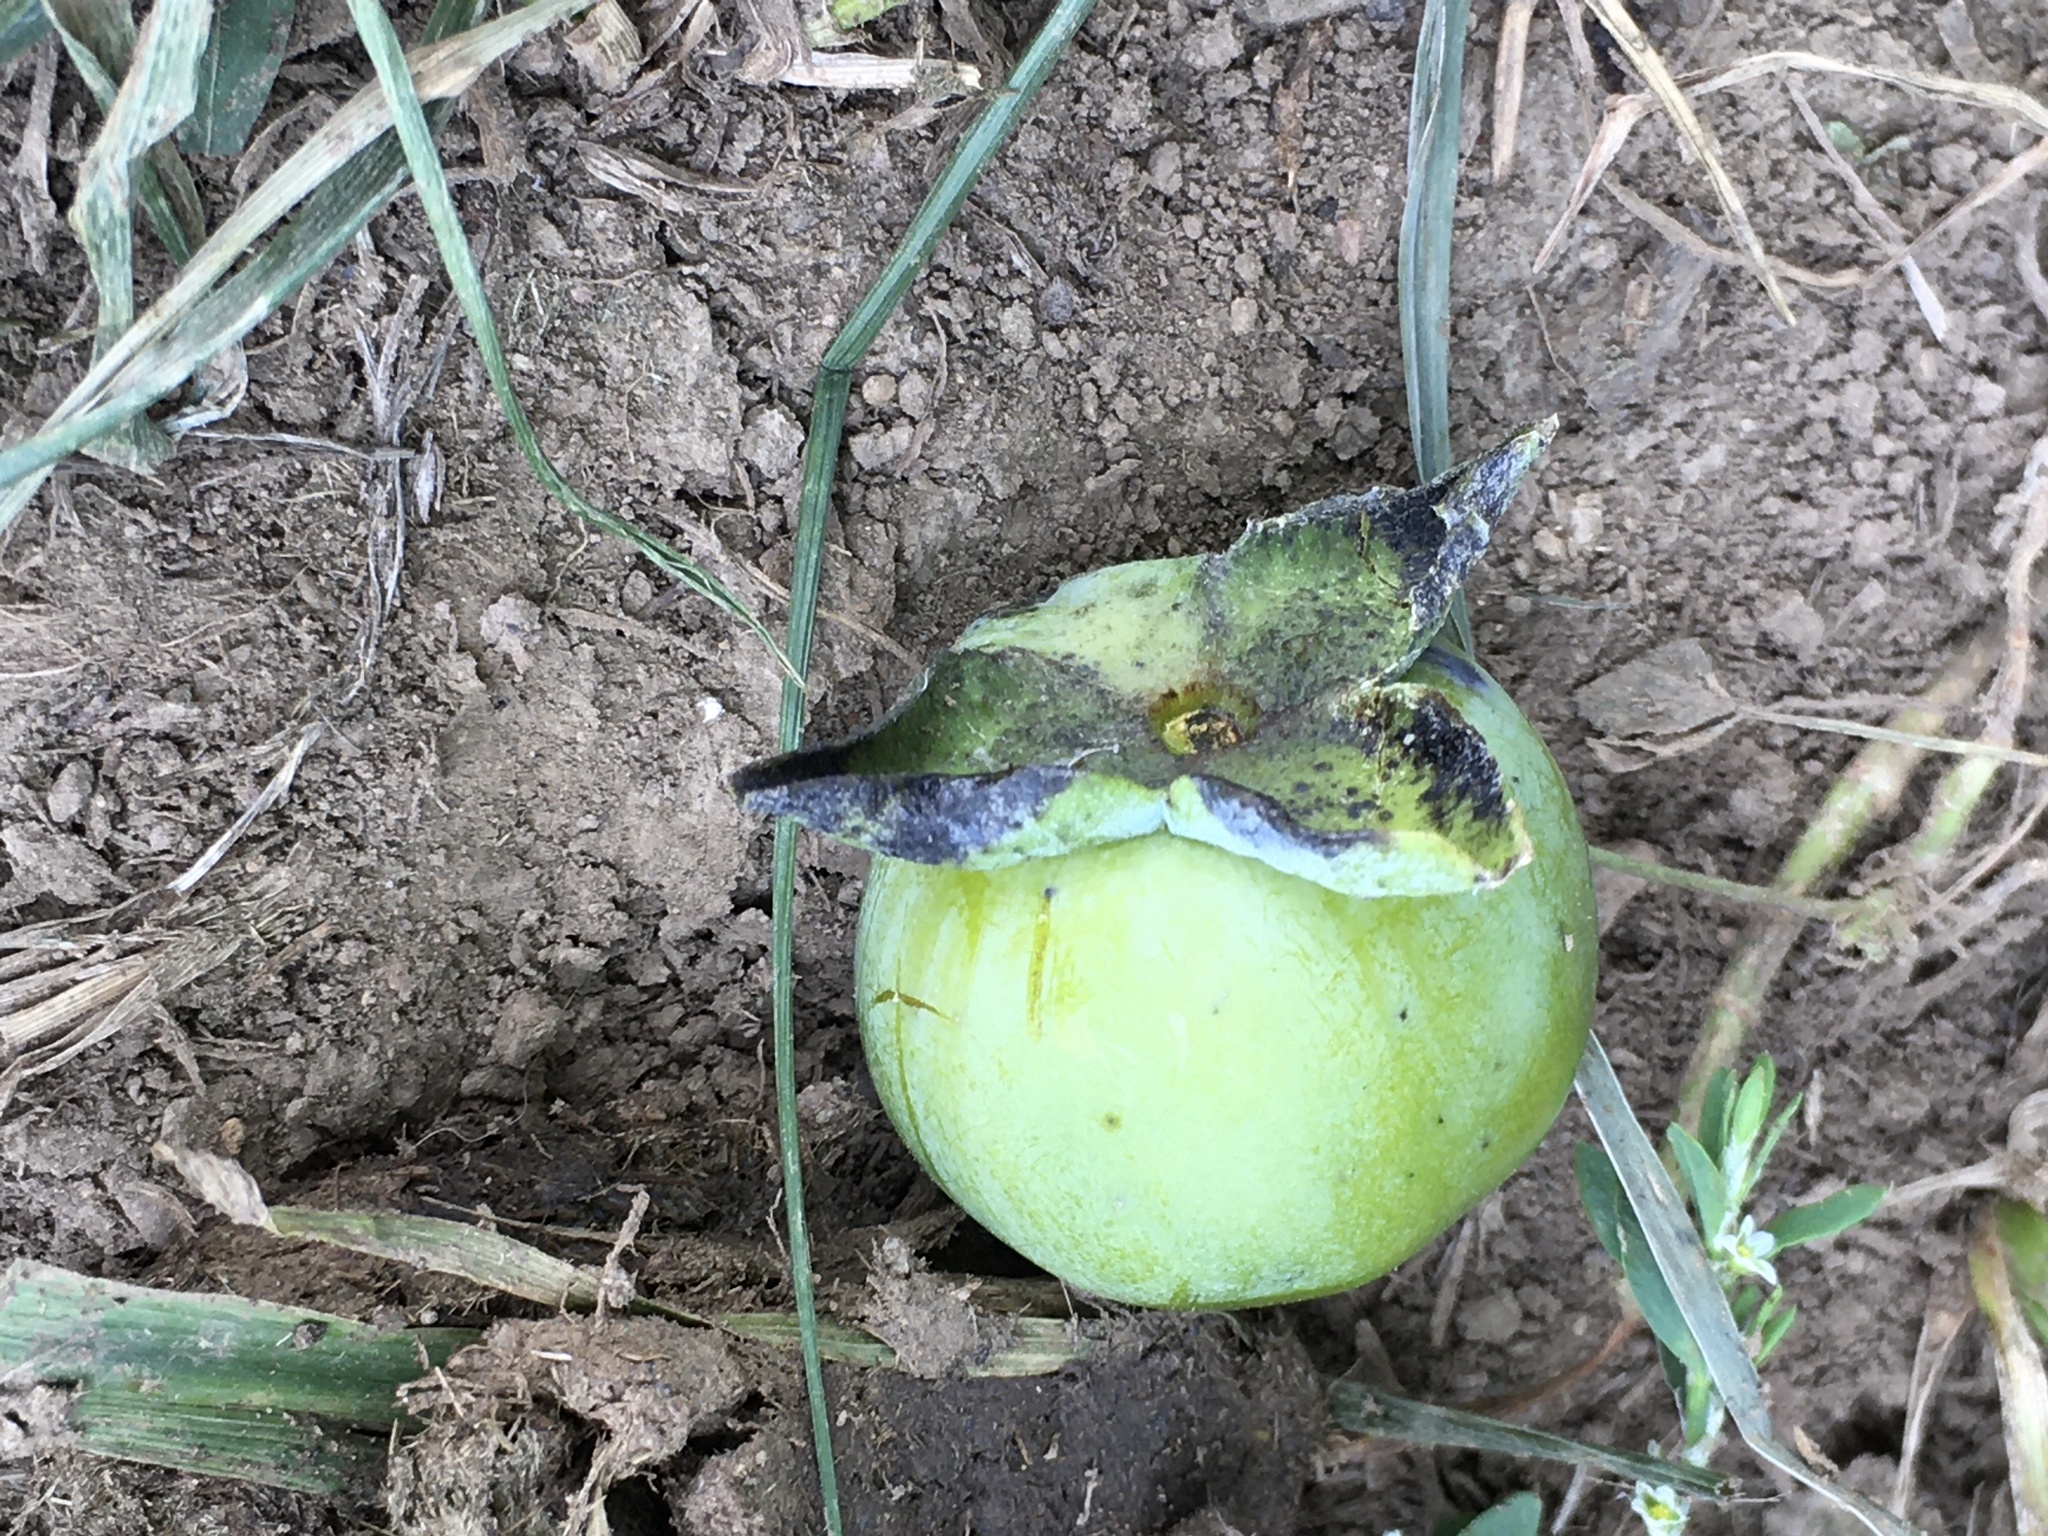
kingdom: Plantae
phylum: Tracheophyta
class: Magnoliopsida
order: Ericales
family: Ebenaceae
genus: Diospyros
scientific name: Diospyros virginiana
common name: Persimmon
